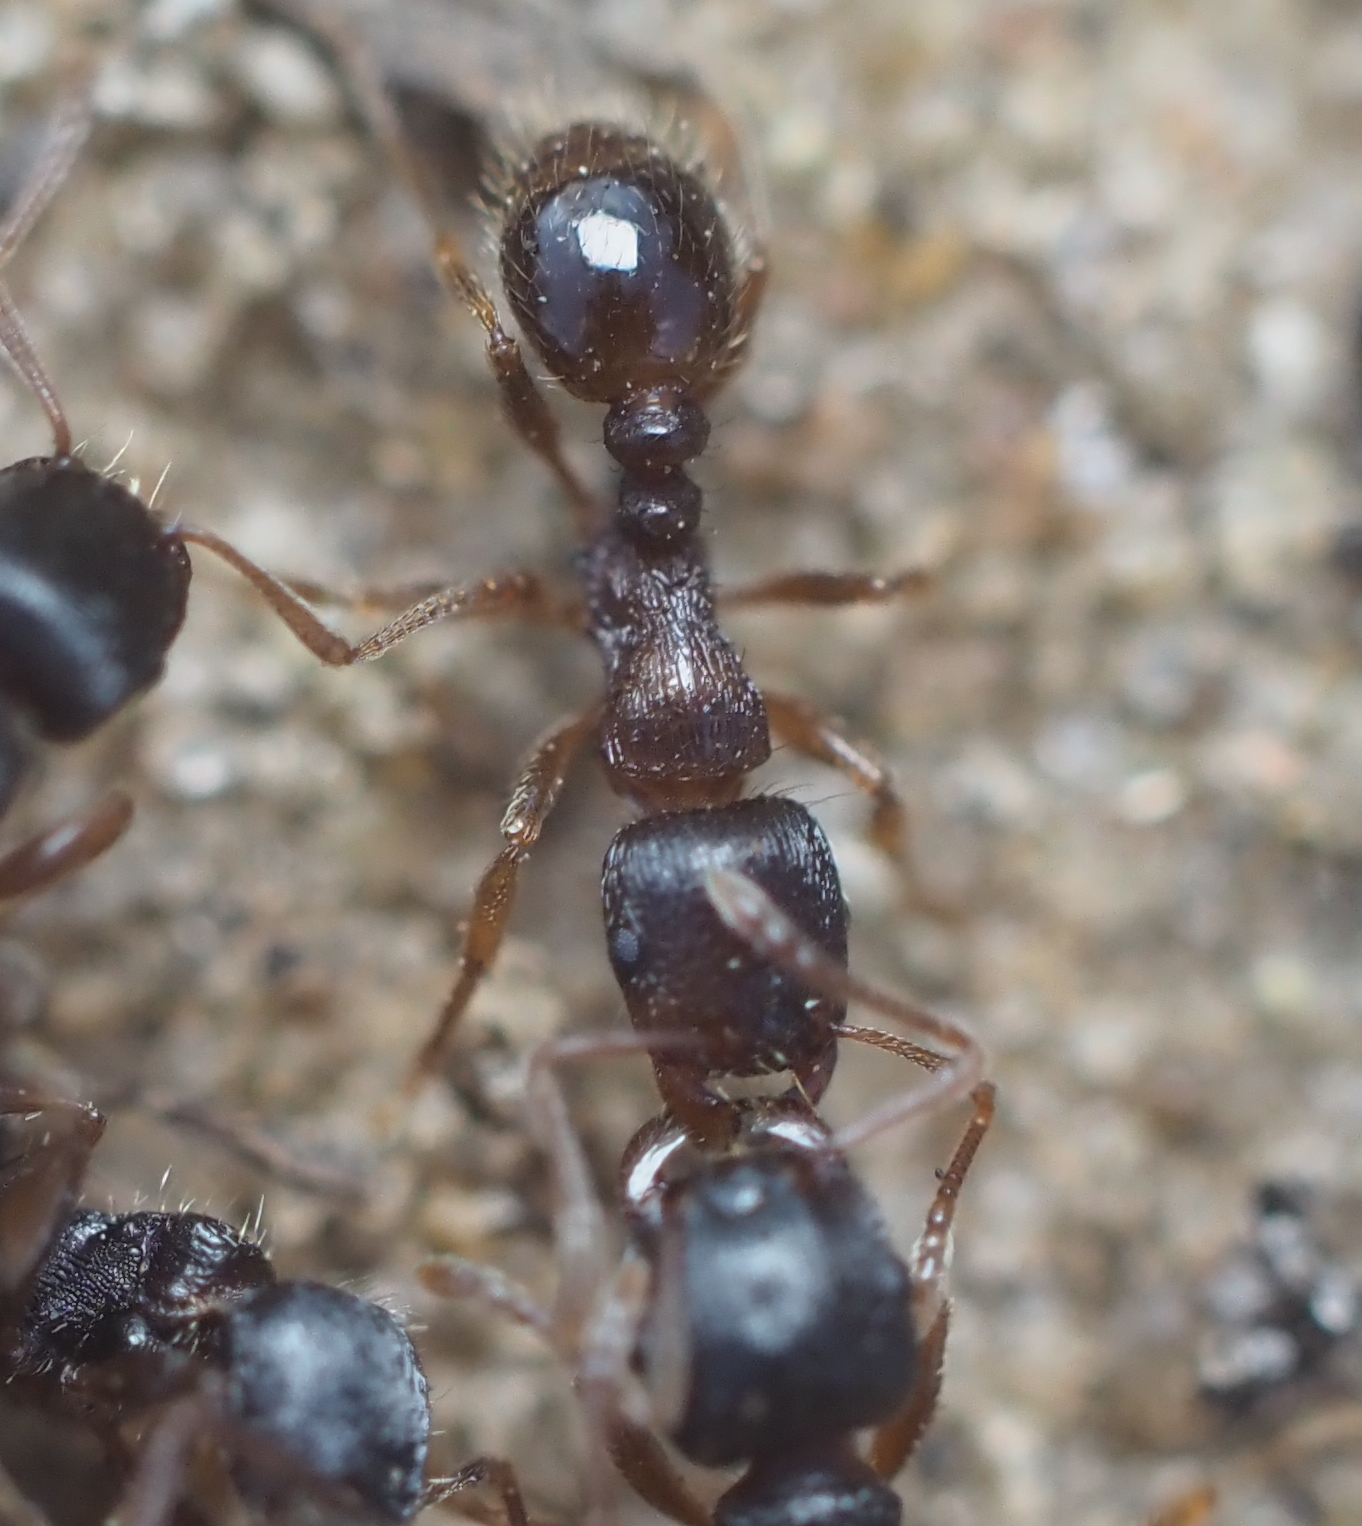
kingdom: Animalia
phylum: Arthropoda
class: Insecta
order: Hymenoptera
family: Formicidae
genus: Tetramorium
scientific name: Tetramorium immigrans
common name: Pavement ant
